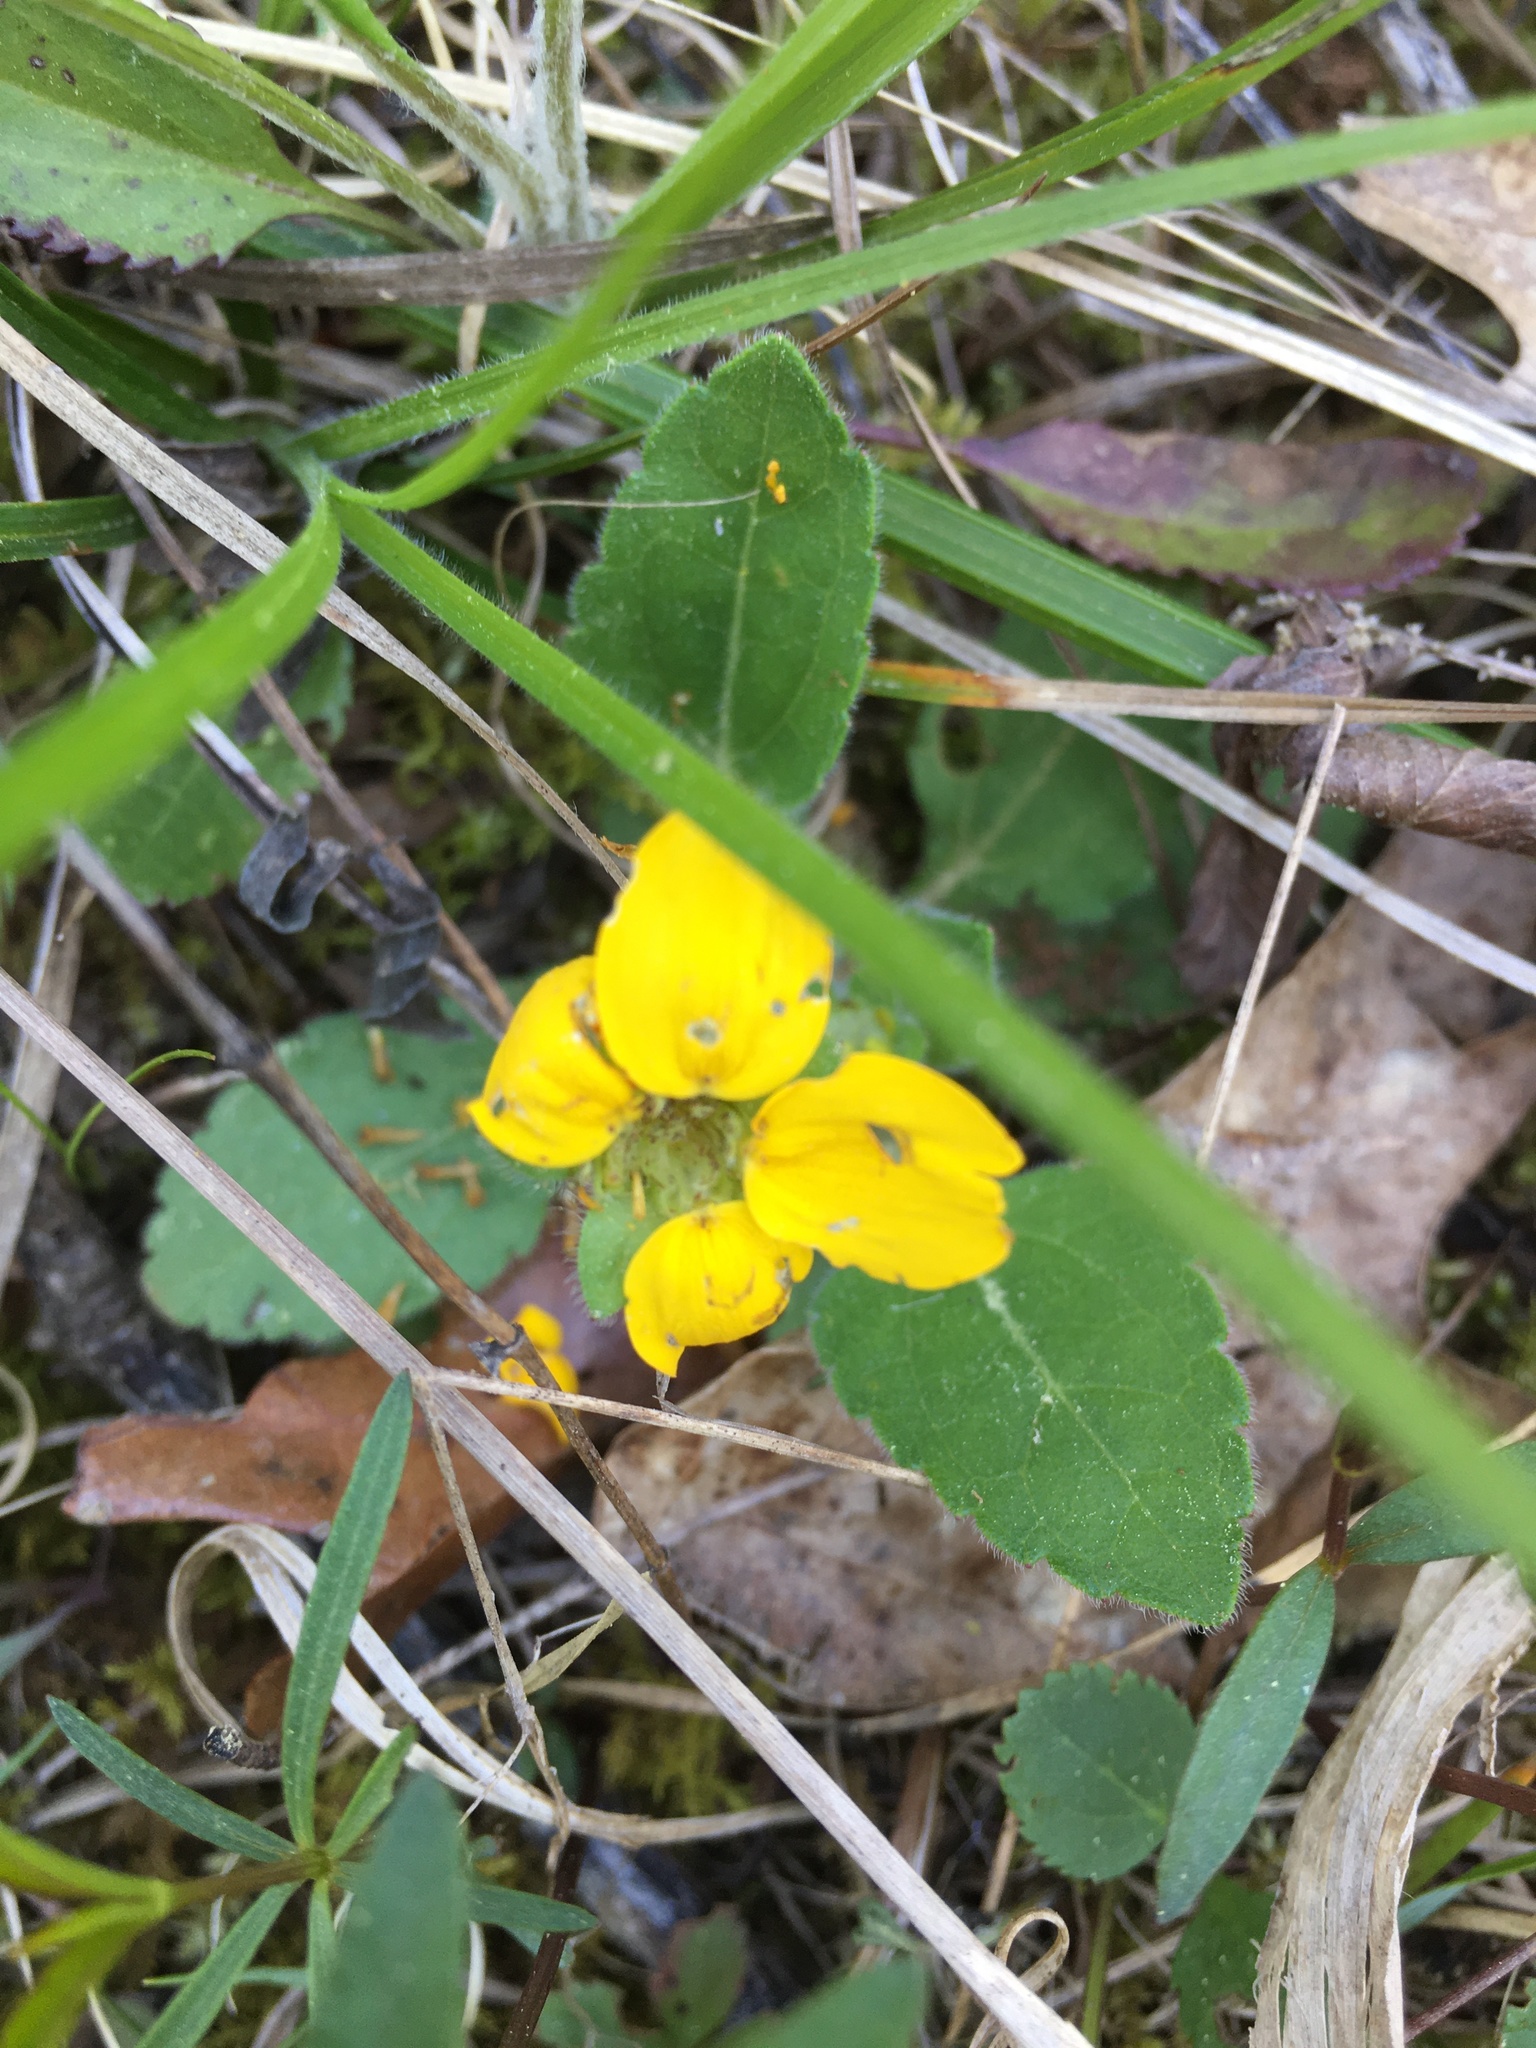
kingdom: Plantae
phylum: Tracheophyta
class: Magnoliopsida
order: Asterales
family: Asteraceae
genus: Chrysogonum
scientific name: Chrysogonum virginianum
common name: Golden-knee
